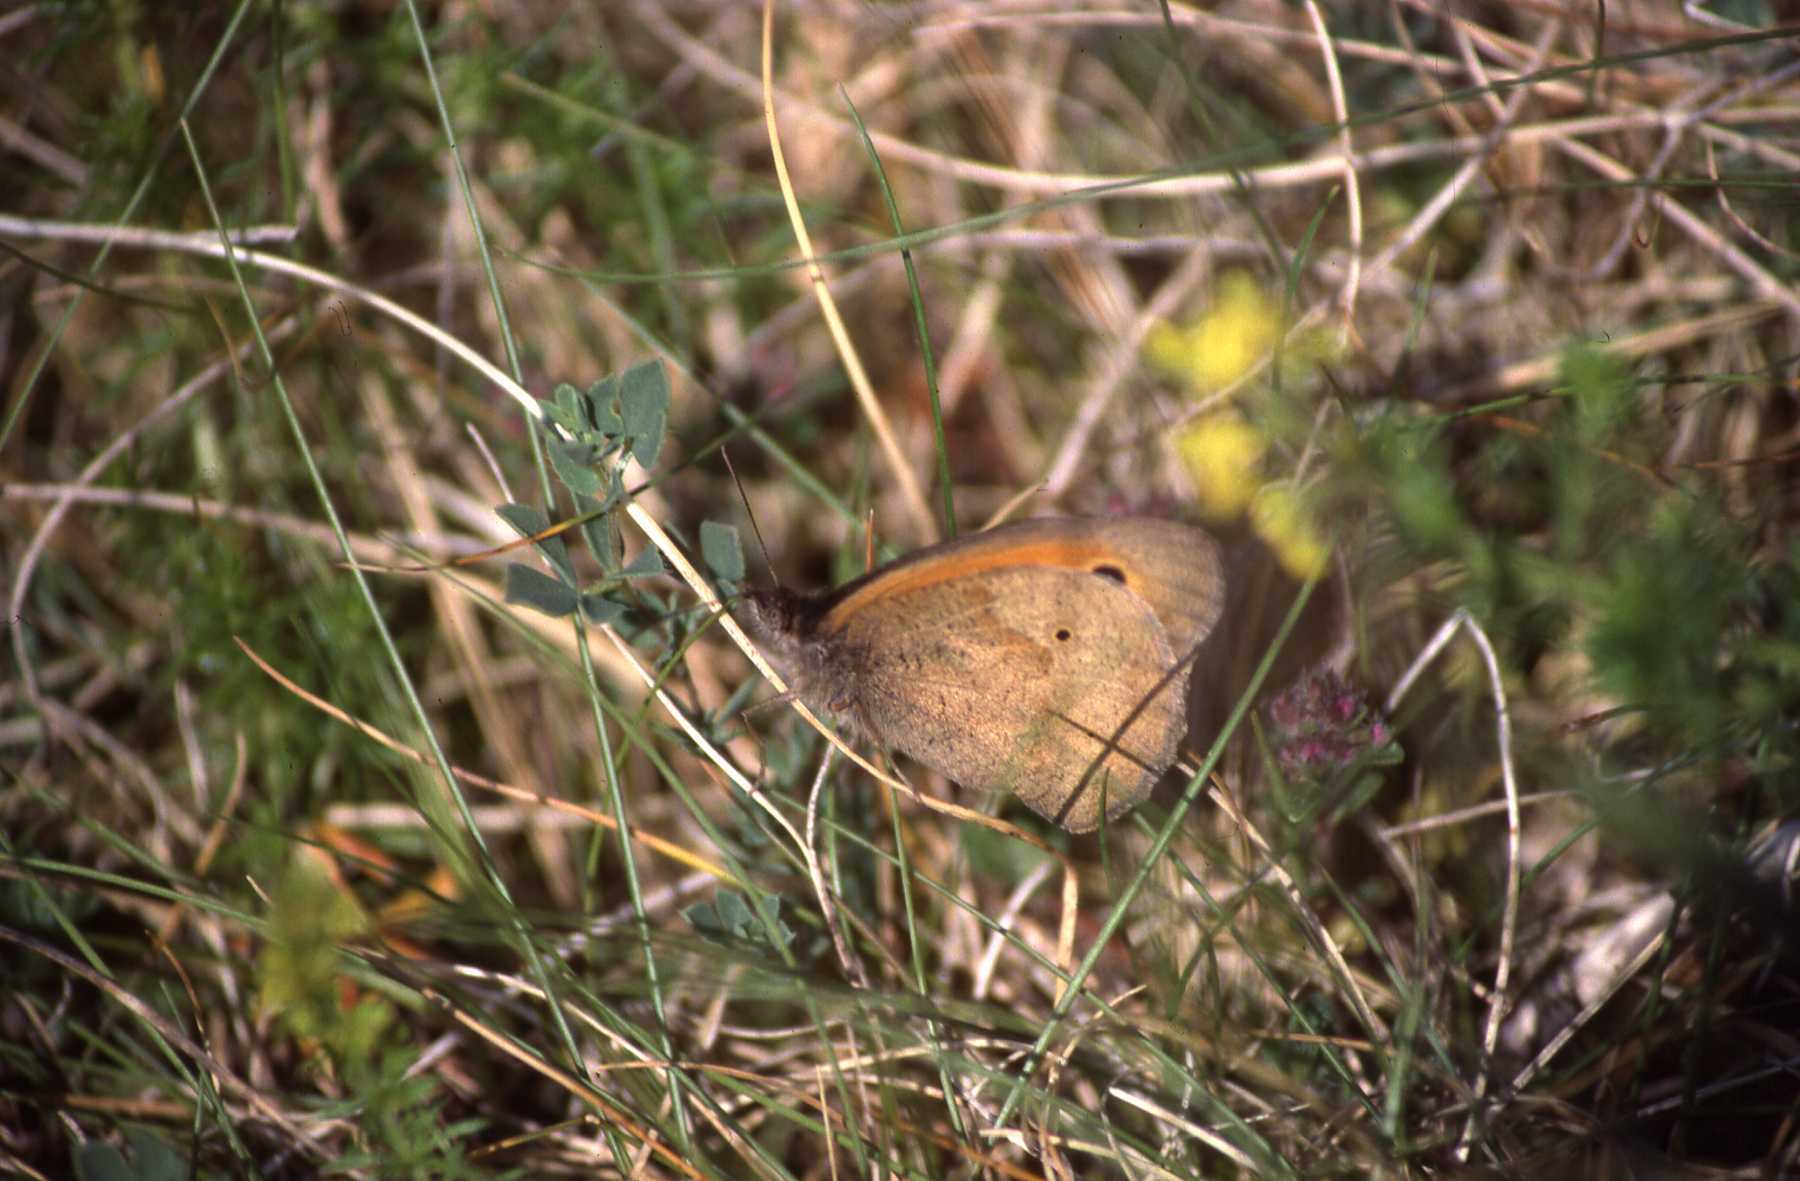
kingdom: Animalia
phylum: Arthropoda
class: Insecta
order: Lepidoptera
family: Nymphalidae
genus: Maniola
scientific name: Maniola jurtina
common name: Meadow brown
